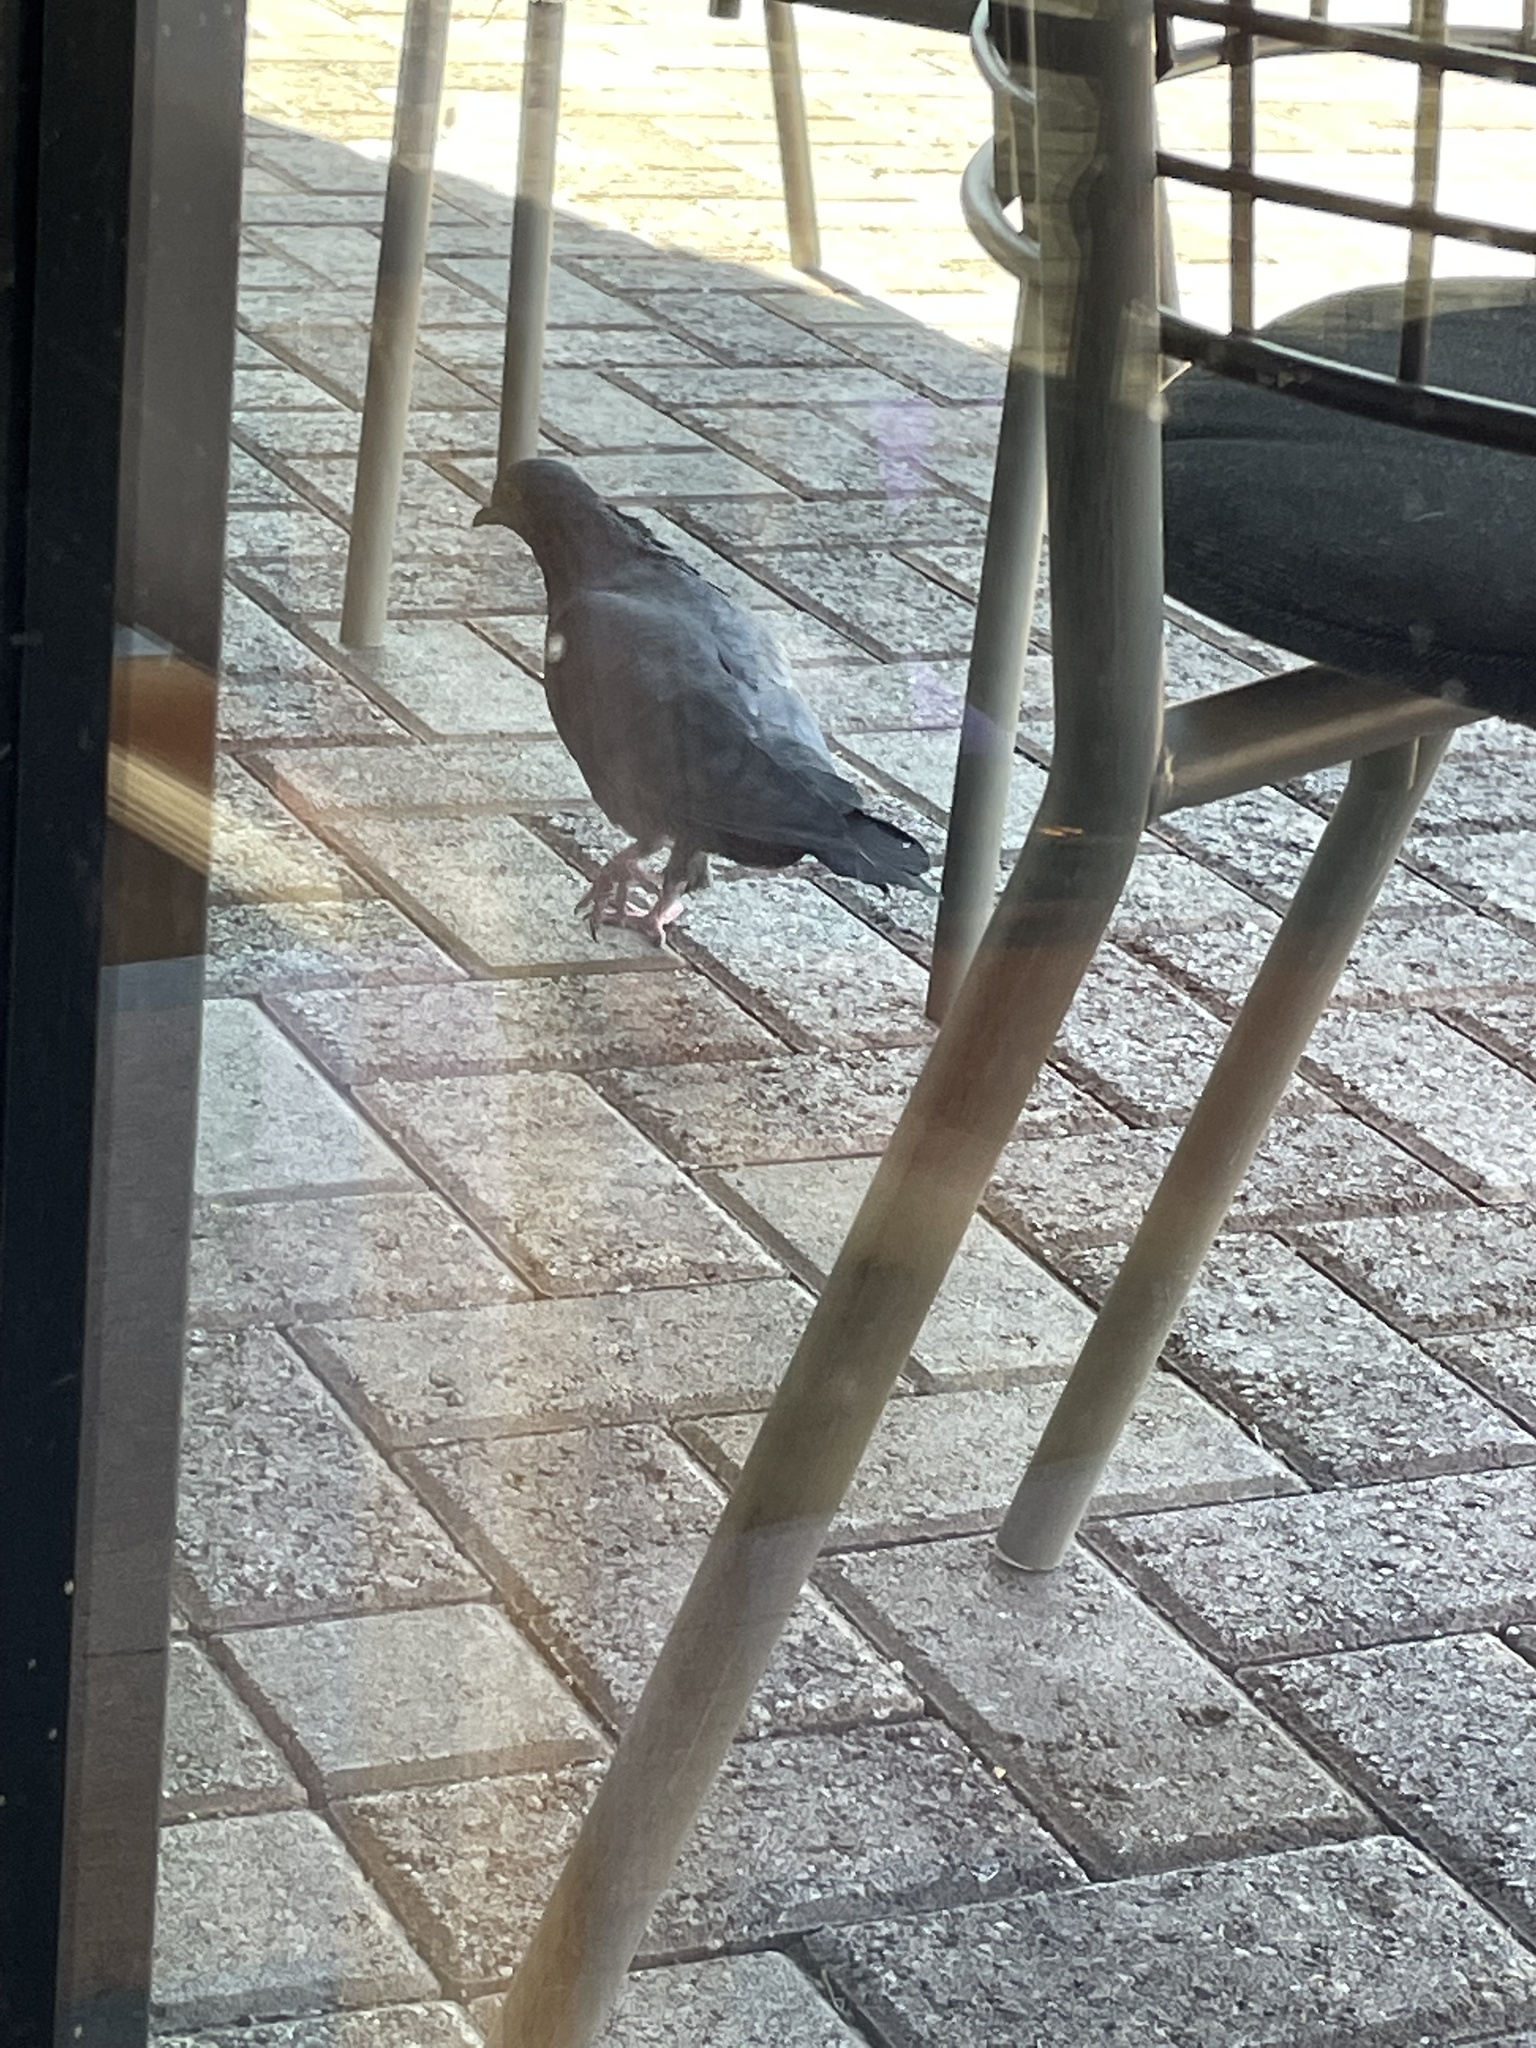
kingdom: Animalia
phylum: Chordata
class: Aves
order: Columbiformes
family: Columbidae
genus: Columba
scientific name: Columba livia
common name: Rock pigeon
